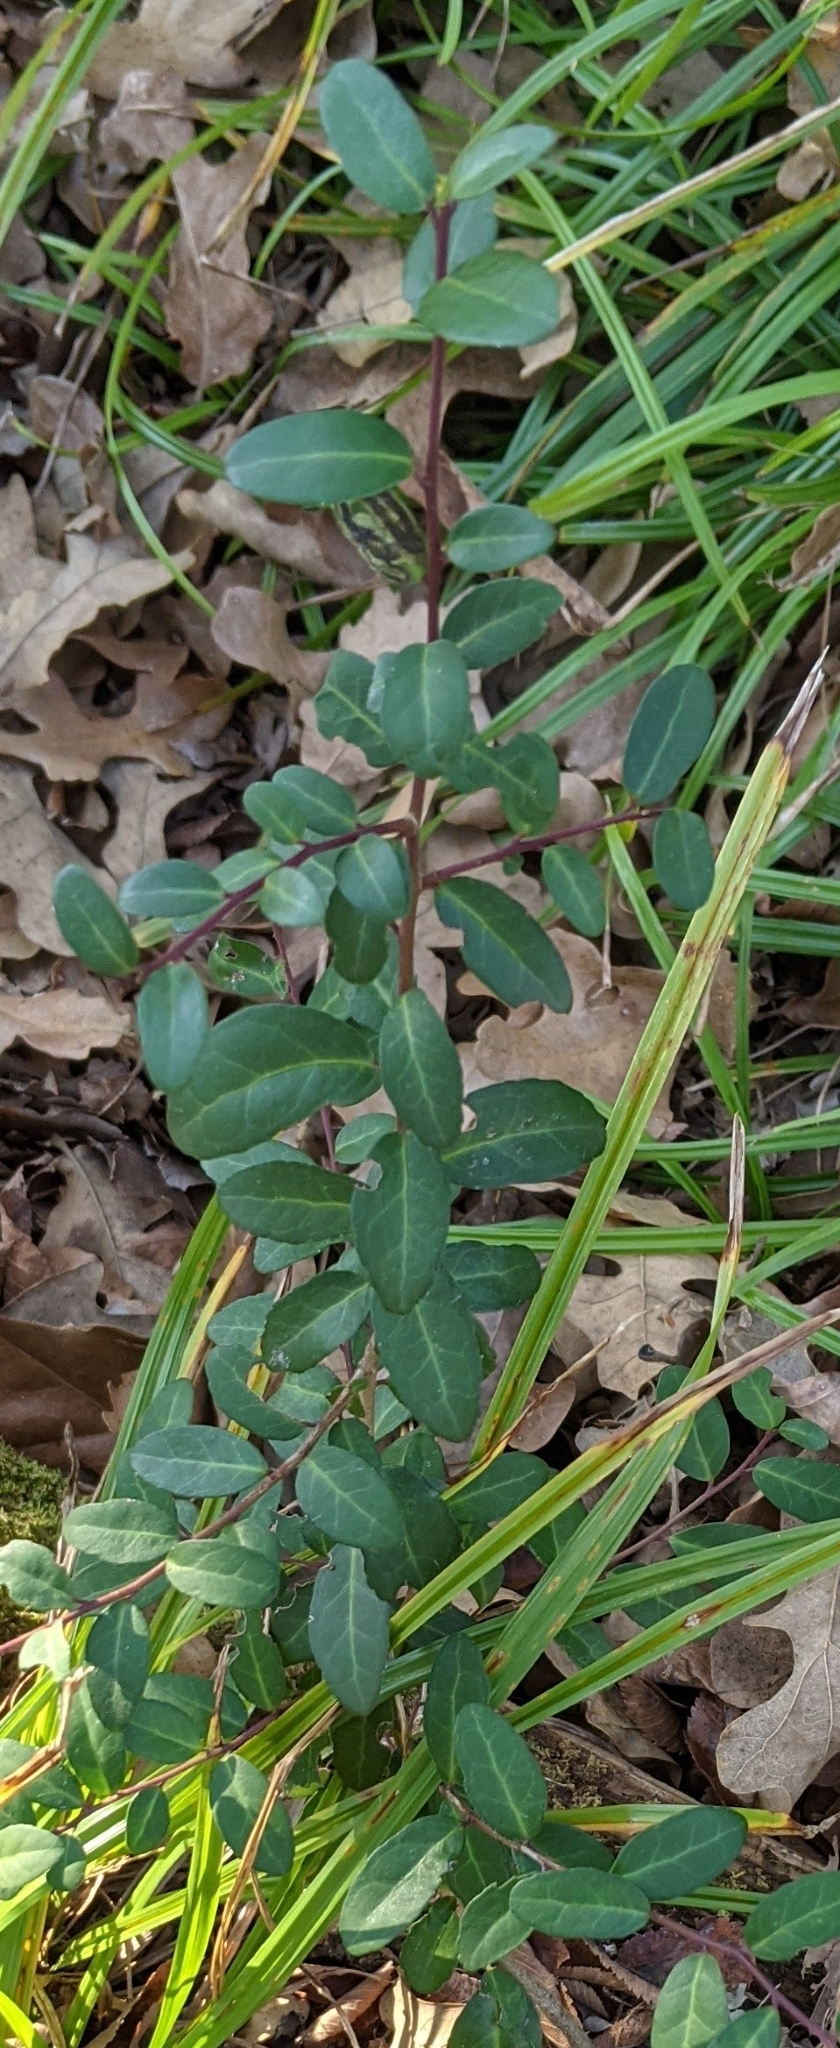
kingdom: Plantae
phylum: Tracheophyta
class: Magnoliopsida
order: Aquifoliales
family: Aquifoliaceae
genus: Ilex
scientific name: Ilex vomitoria
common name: Yaupon holly
